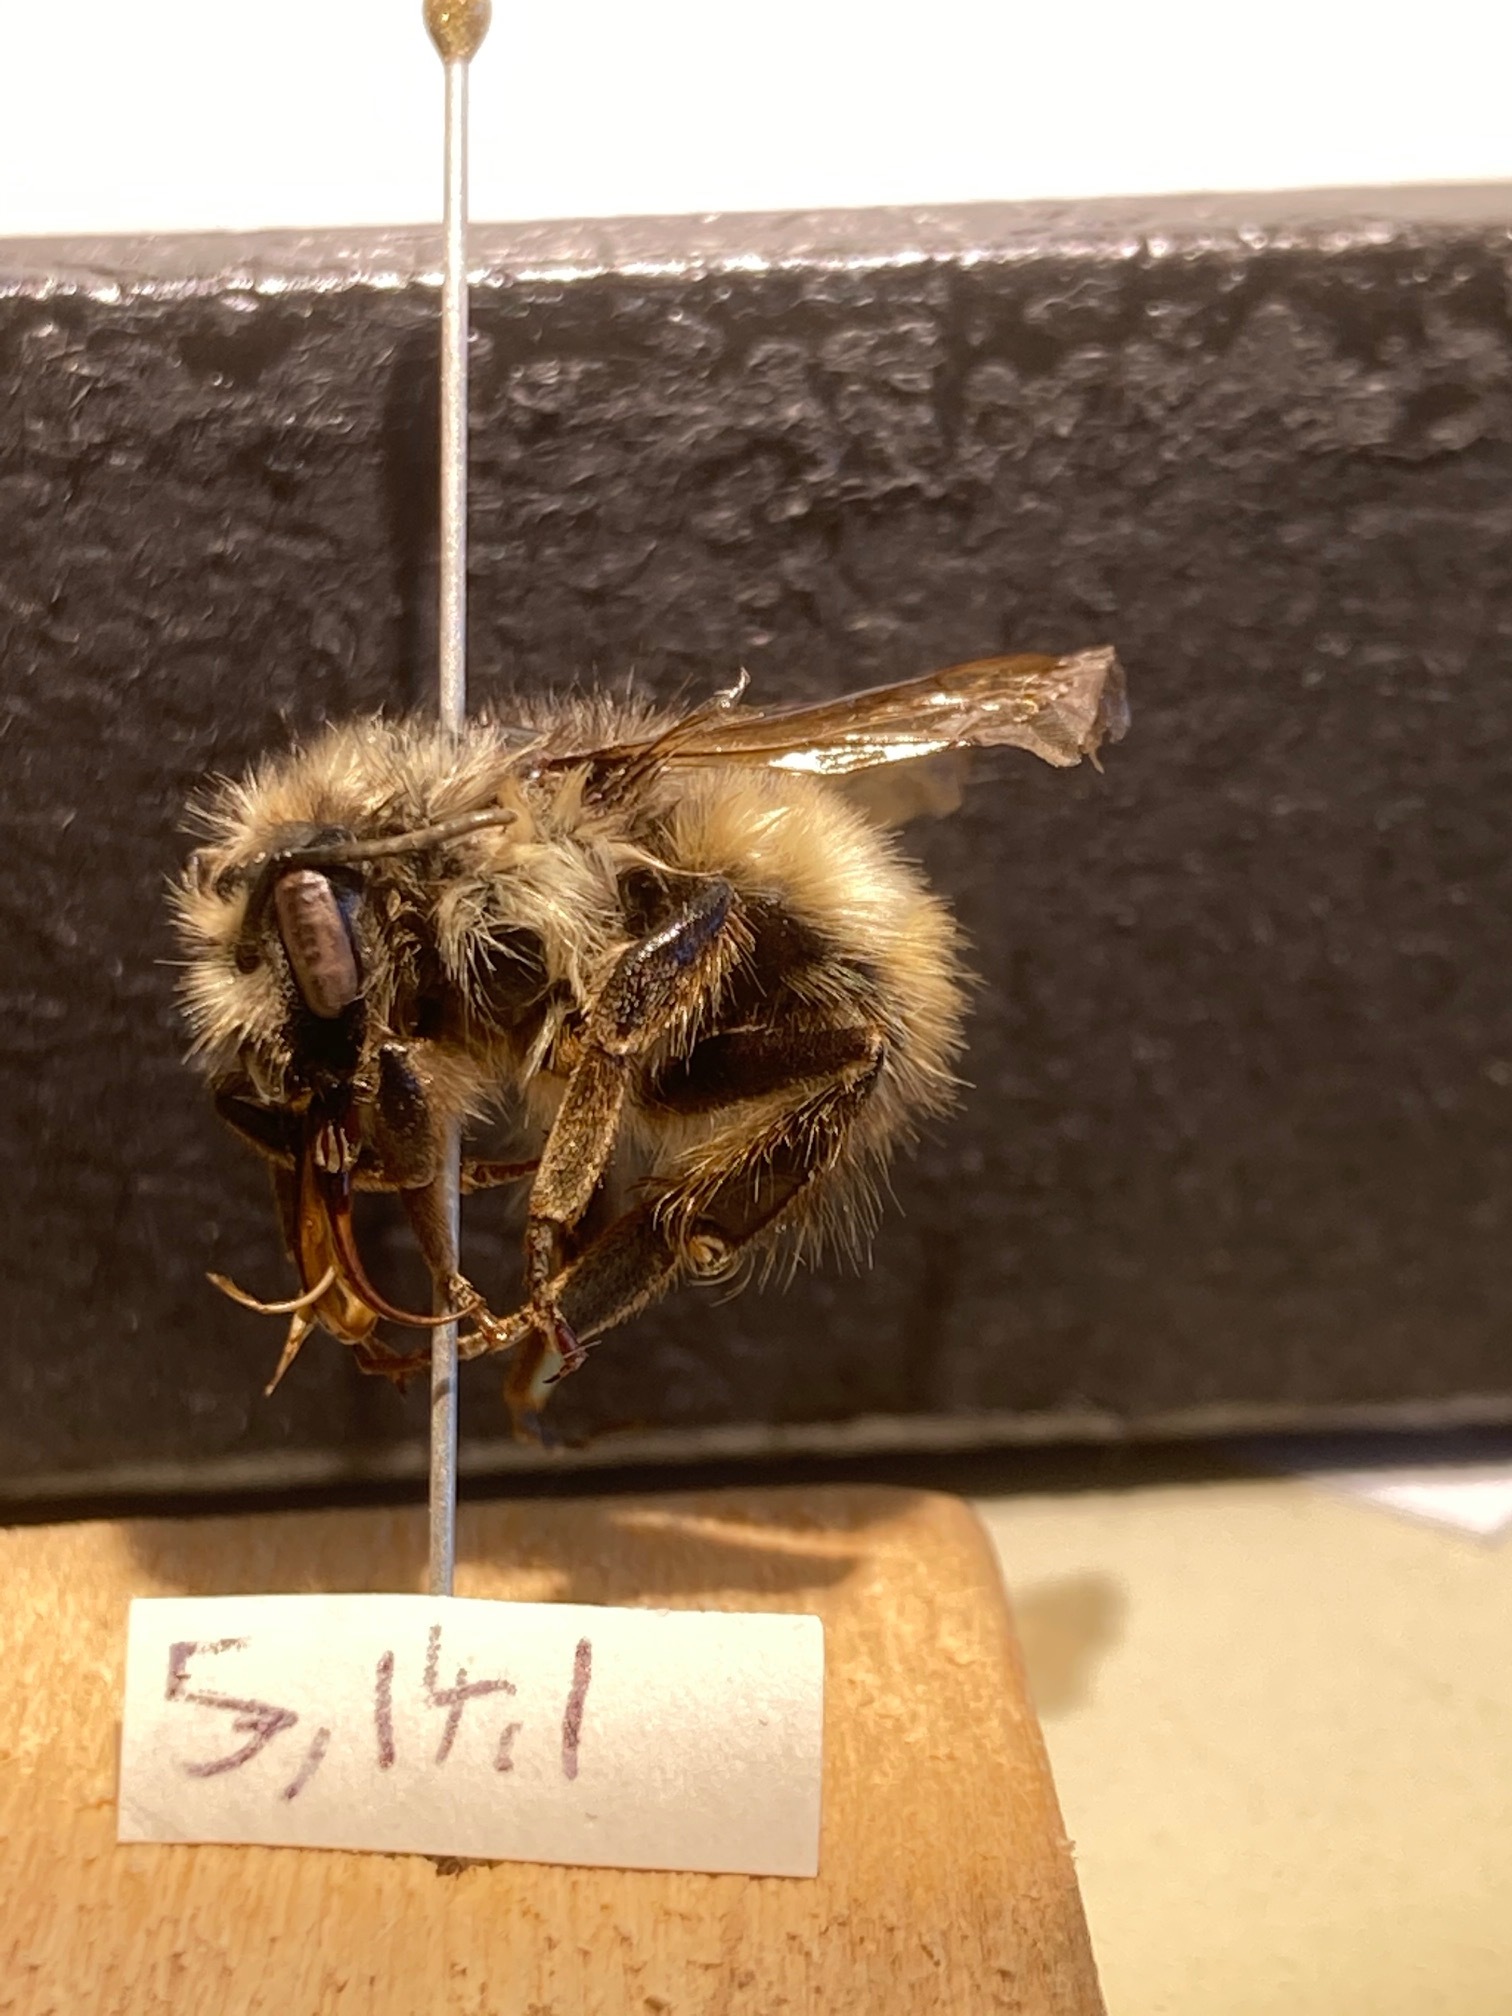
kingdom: Animalia
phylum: Arthropoda
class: Insecta
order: Hymenoptera
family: Apidae
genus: Bombus
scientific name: Bombus flavifrons
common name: Yellow head bumble bee
